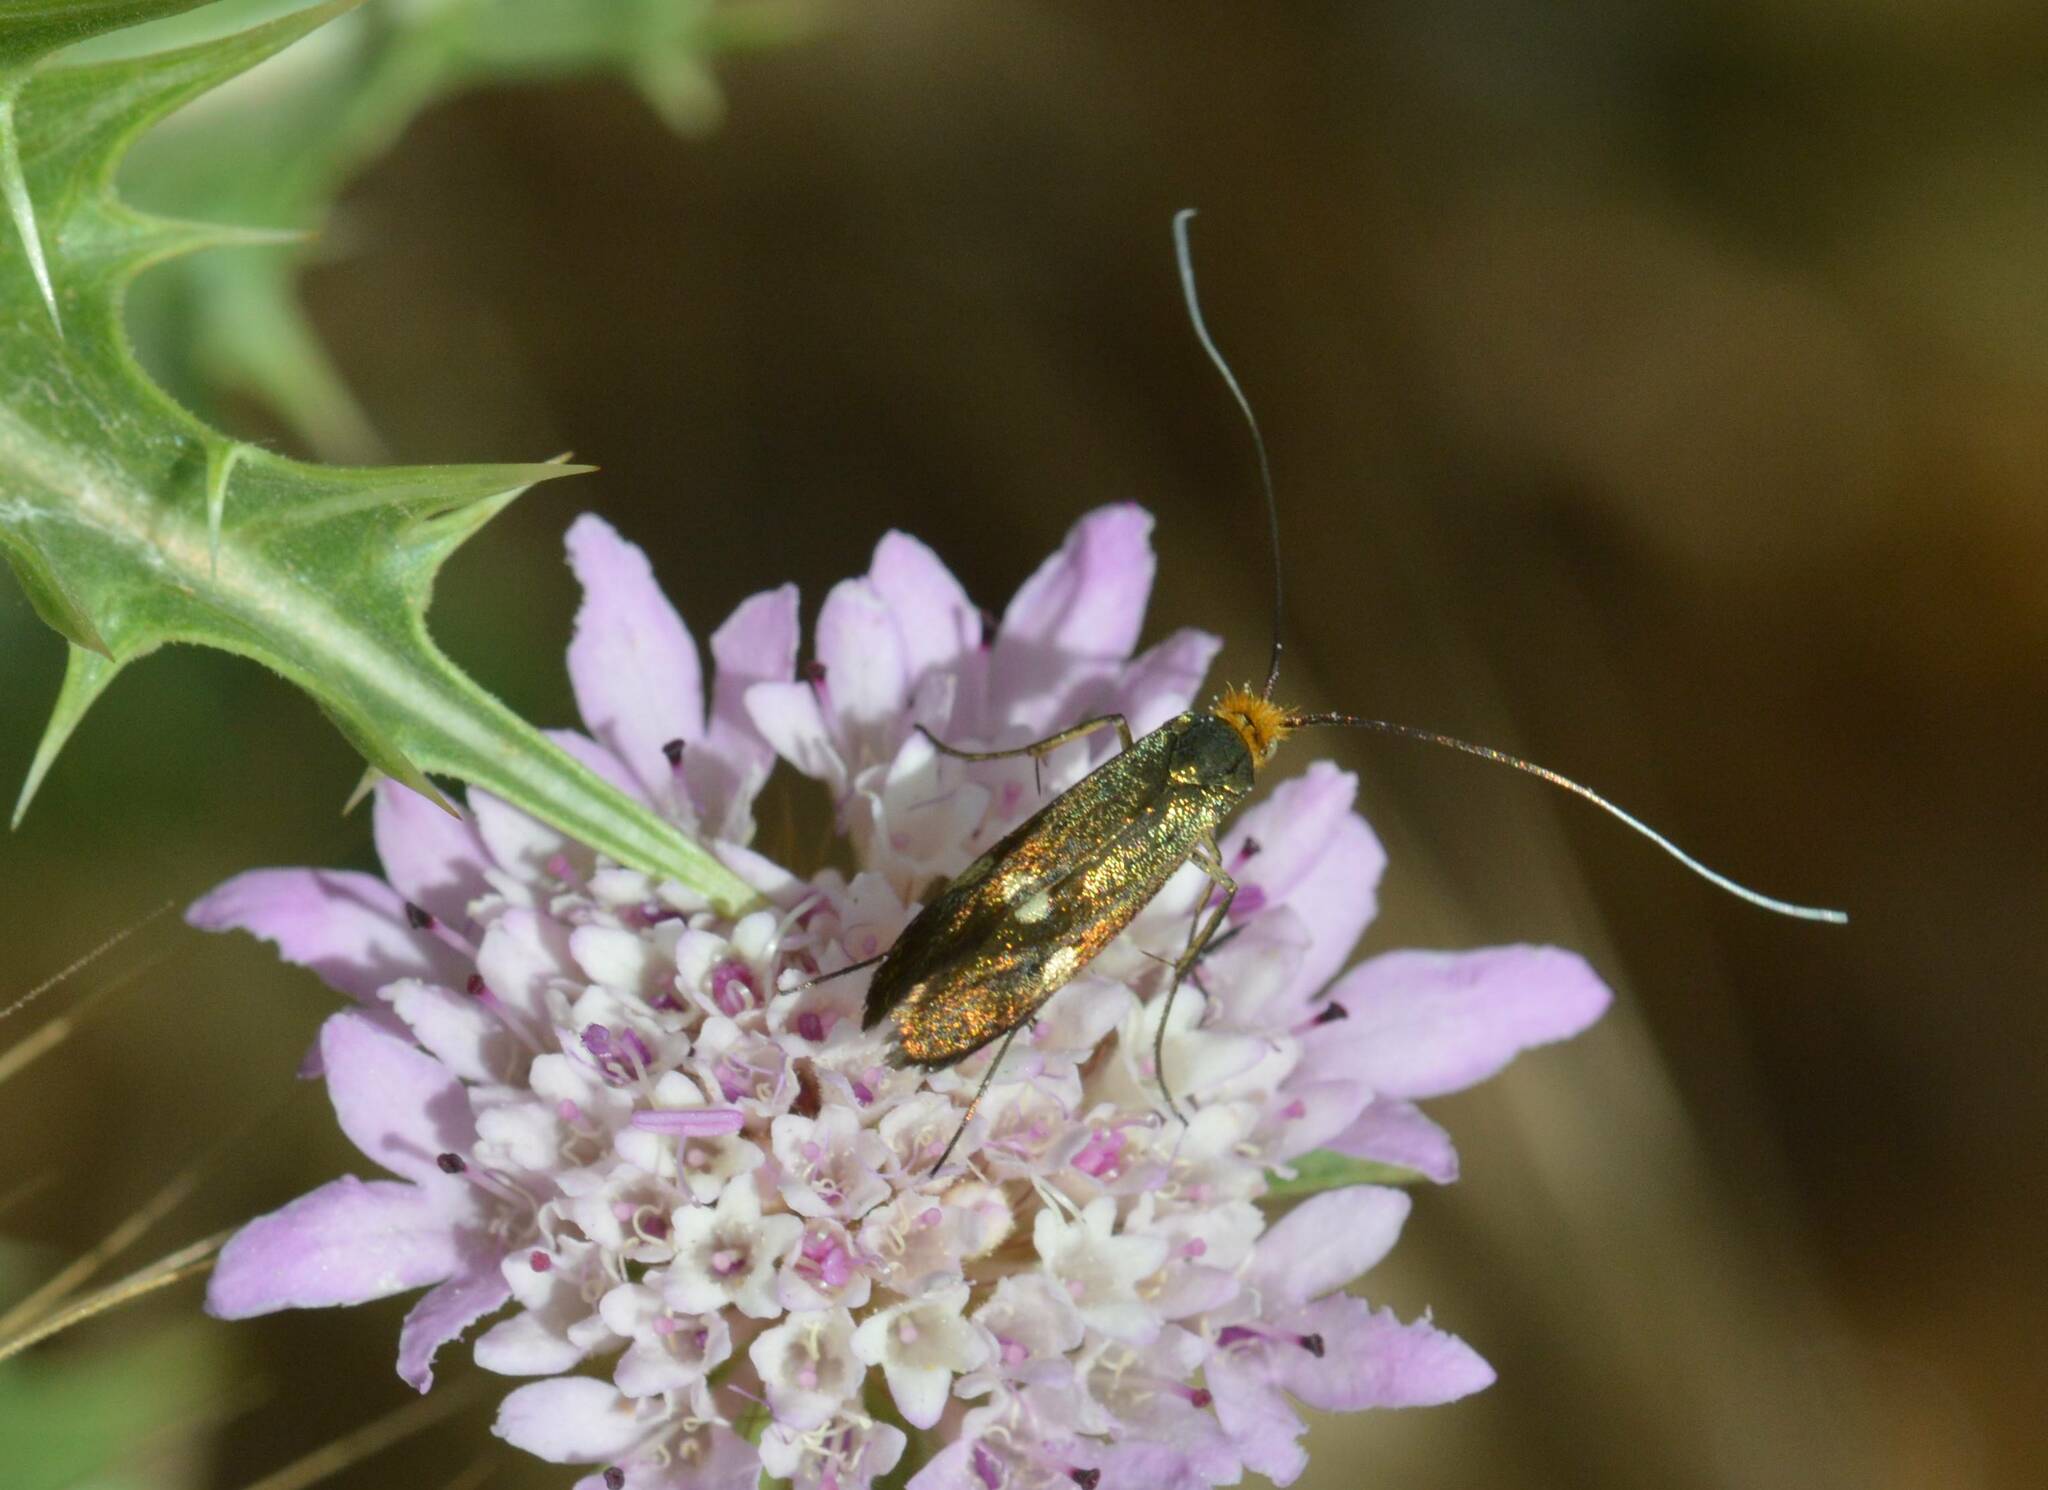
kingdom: Animalia
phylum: Arthropoda
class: Insecta
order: Lepidoptera
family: Adelidae
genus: Nemophora
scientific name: Nemophora raddaella
